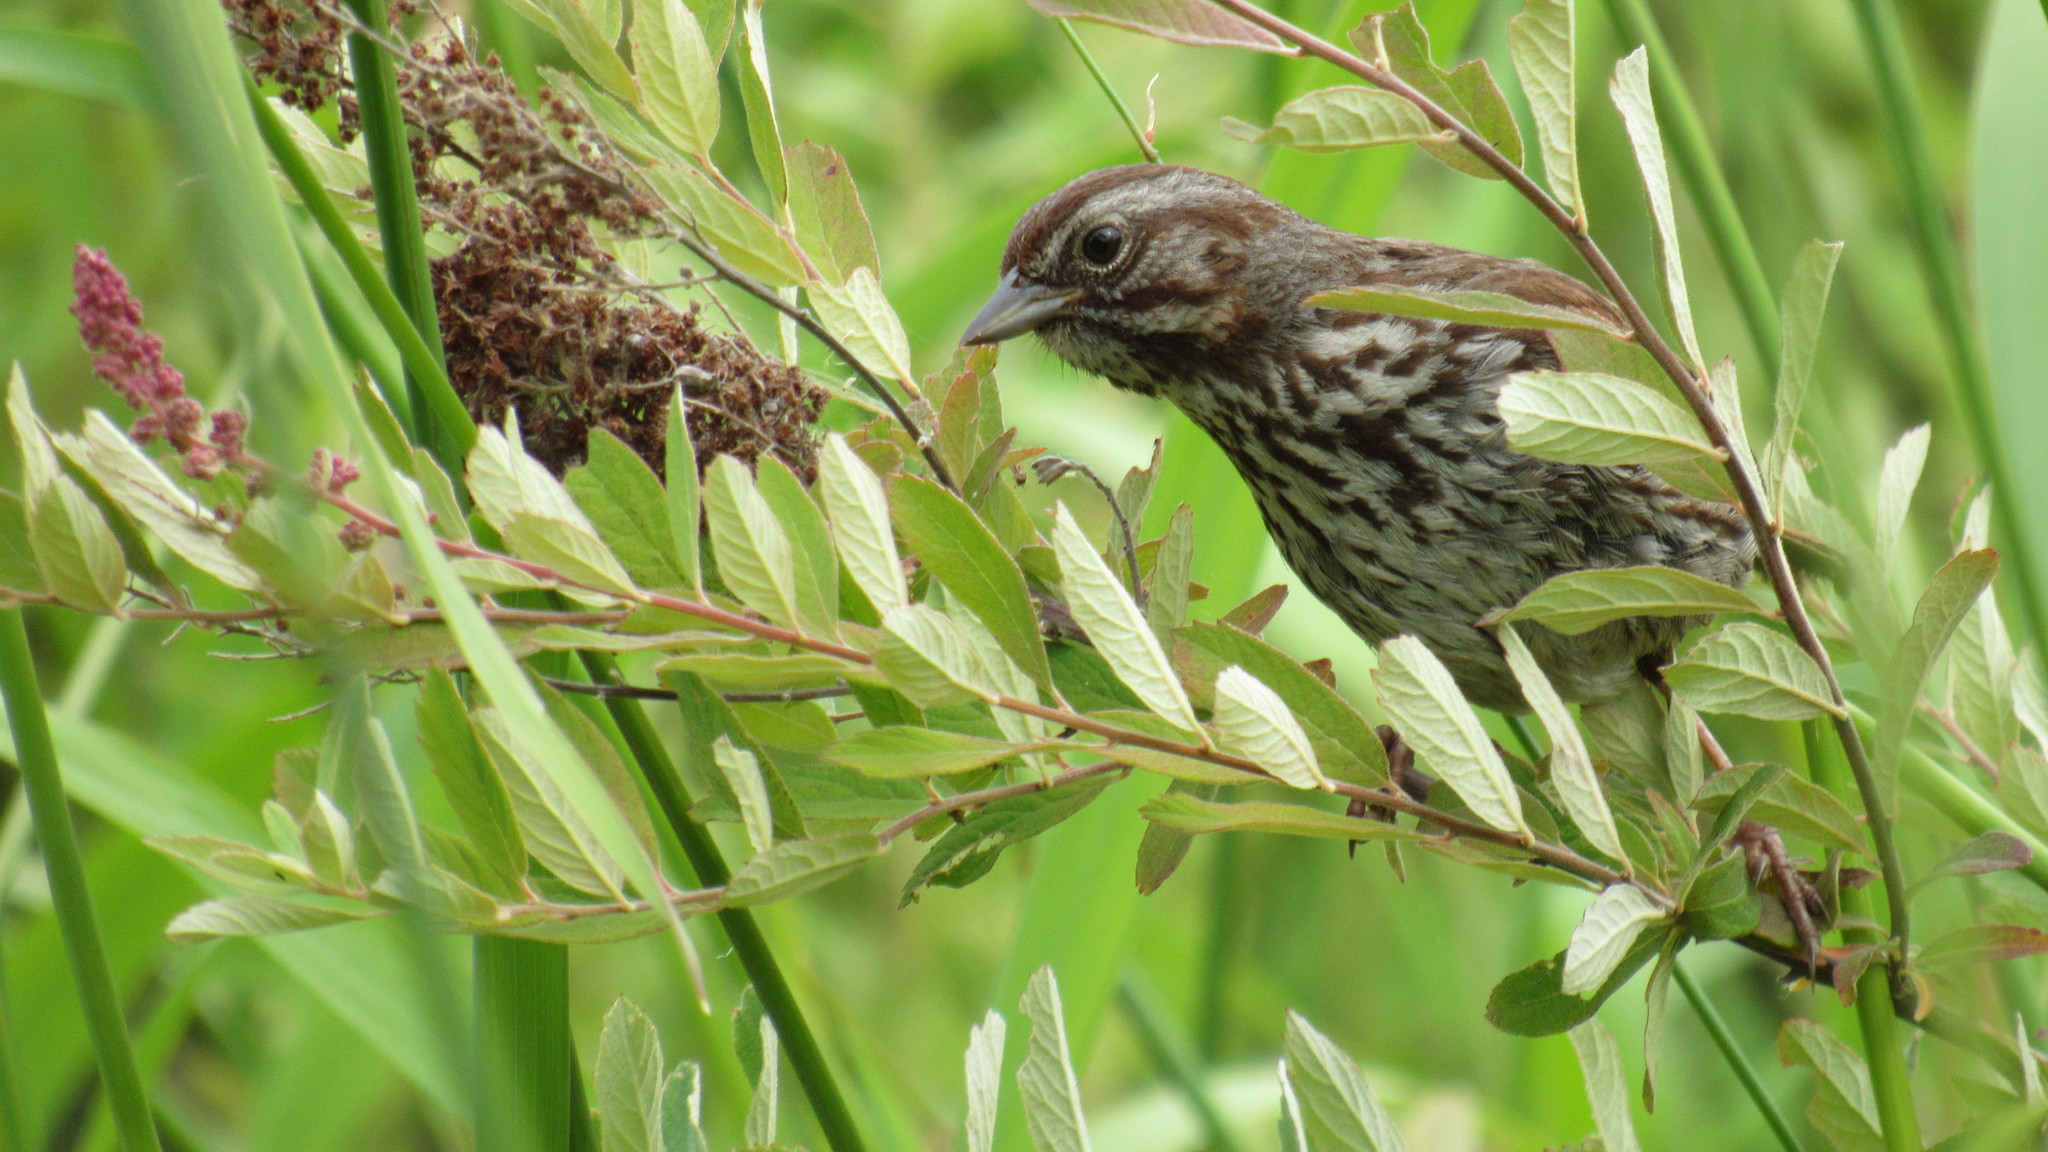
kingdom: Animalia
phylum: Chordata
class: Aves
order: Passeriformes
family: Passerellidae
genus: Melospiza
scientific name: Melospiza melodia
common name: Song sparrow
